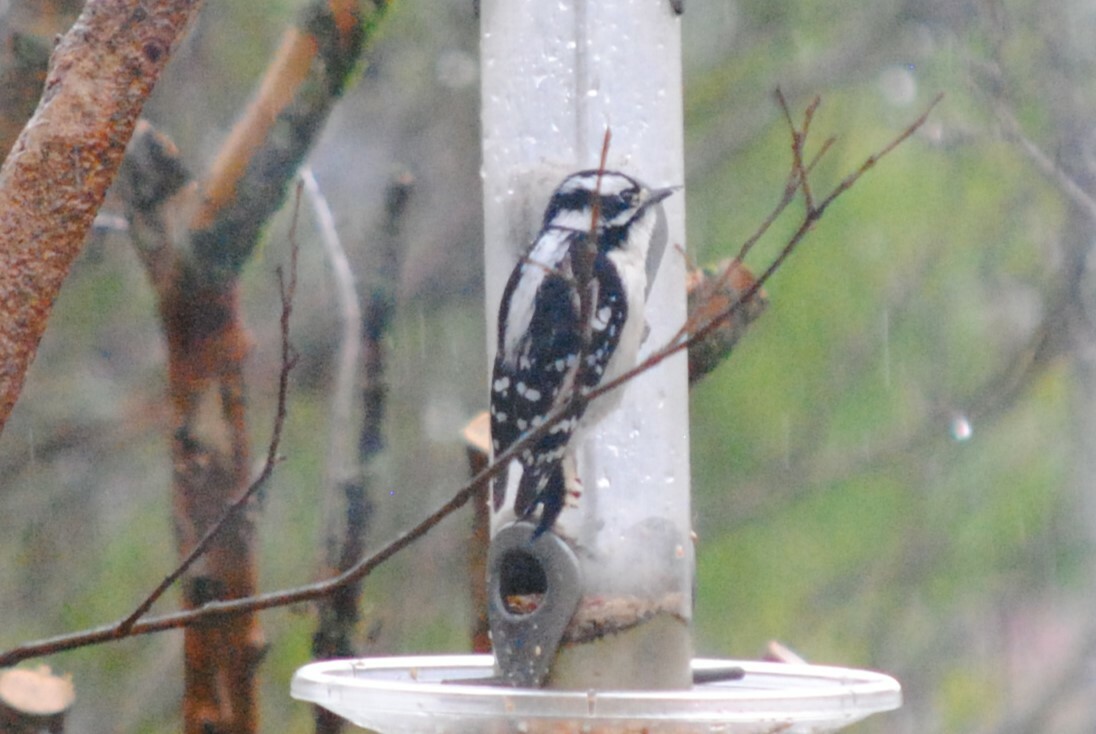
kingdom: Animalia
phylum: Chordata
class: Aves
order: Piciformes
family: Picidae
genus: Dryobates
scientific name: Dryobates pubescens
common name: Downy woodpecker
